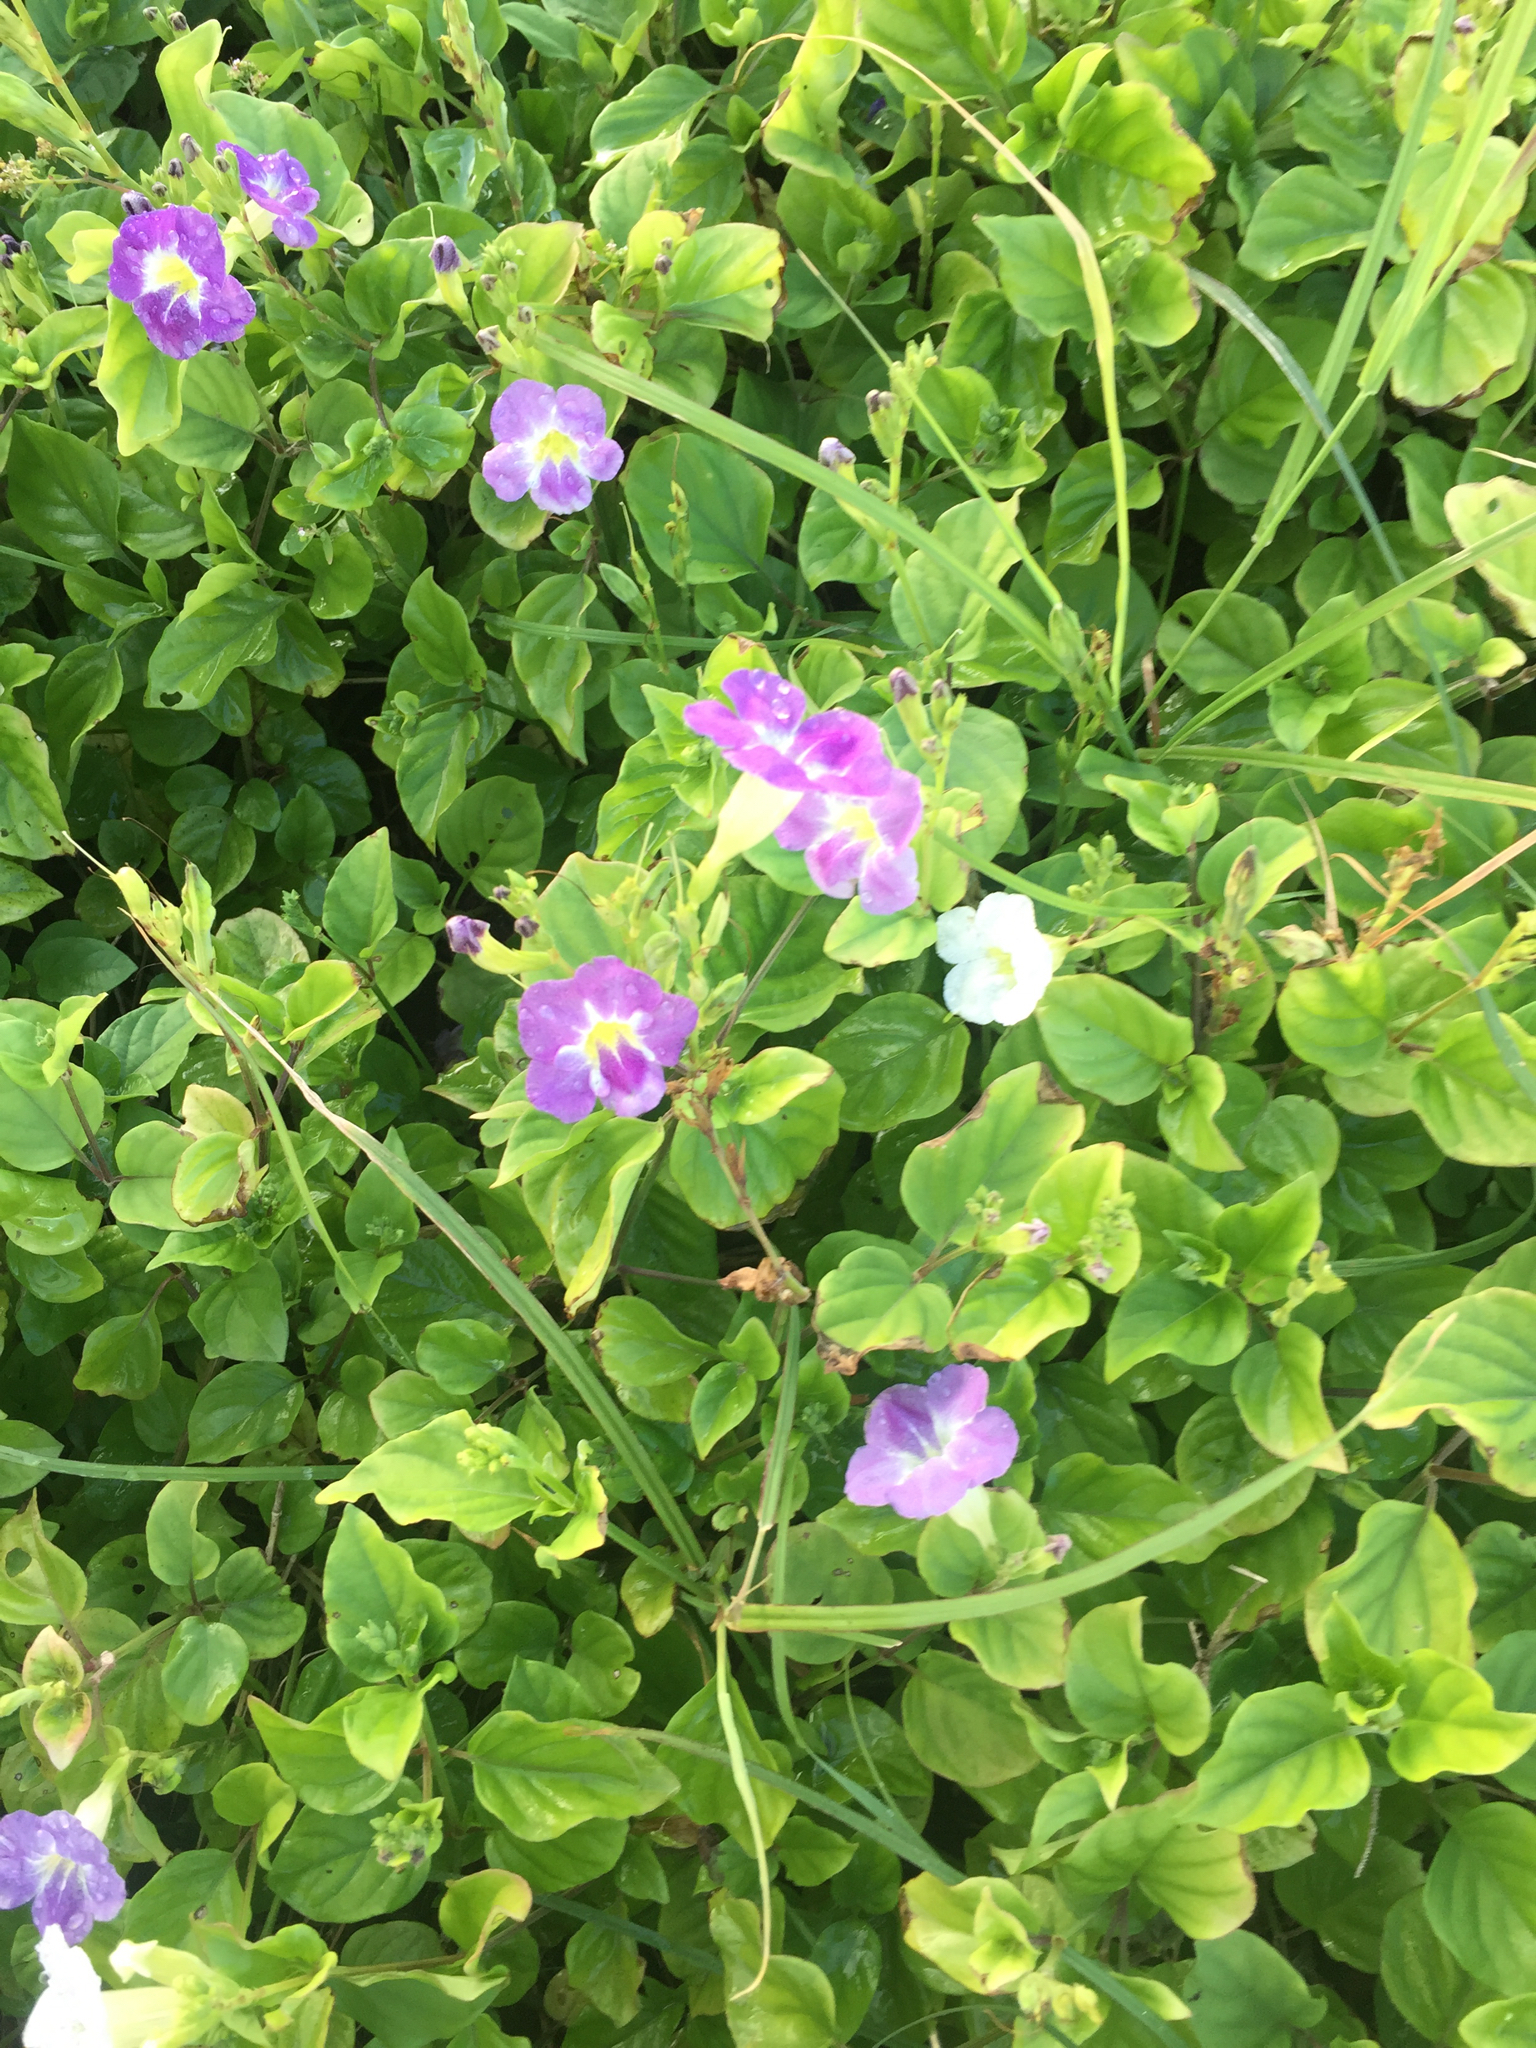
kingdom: Plantae
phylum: Tracheophyta
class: Magnoliopsida
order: Lamiales
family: Acanthaceae
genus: Asystasia
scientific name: Asystasia gangetica
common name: Chinese violet
